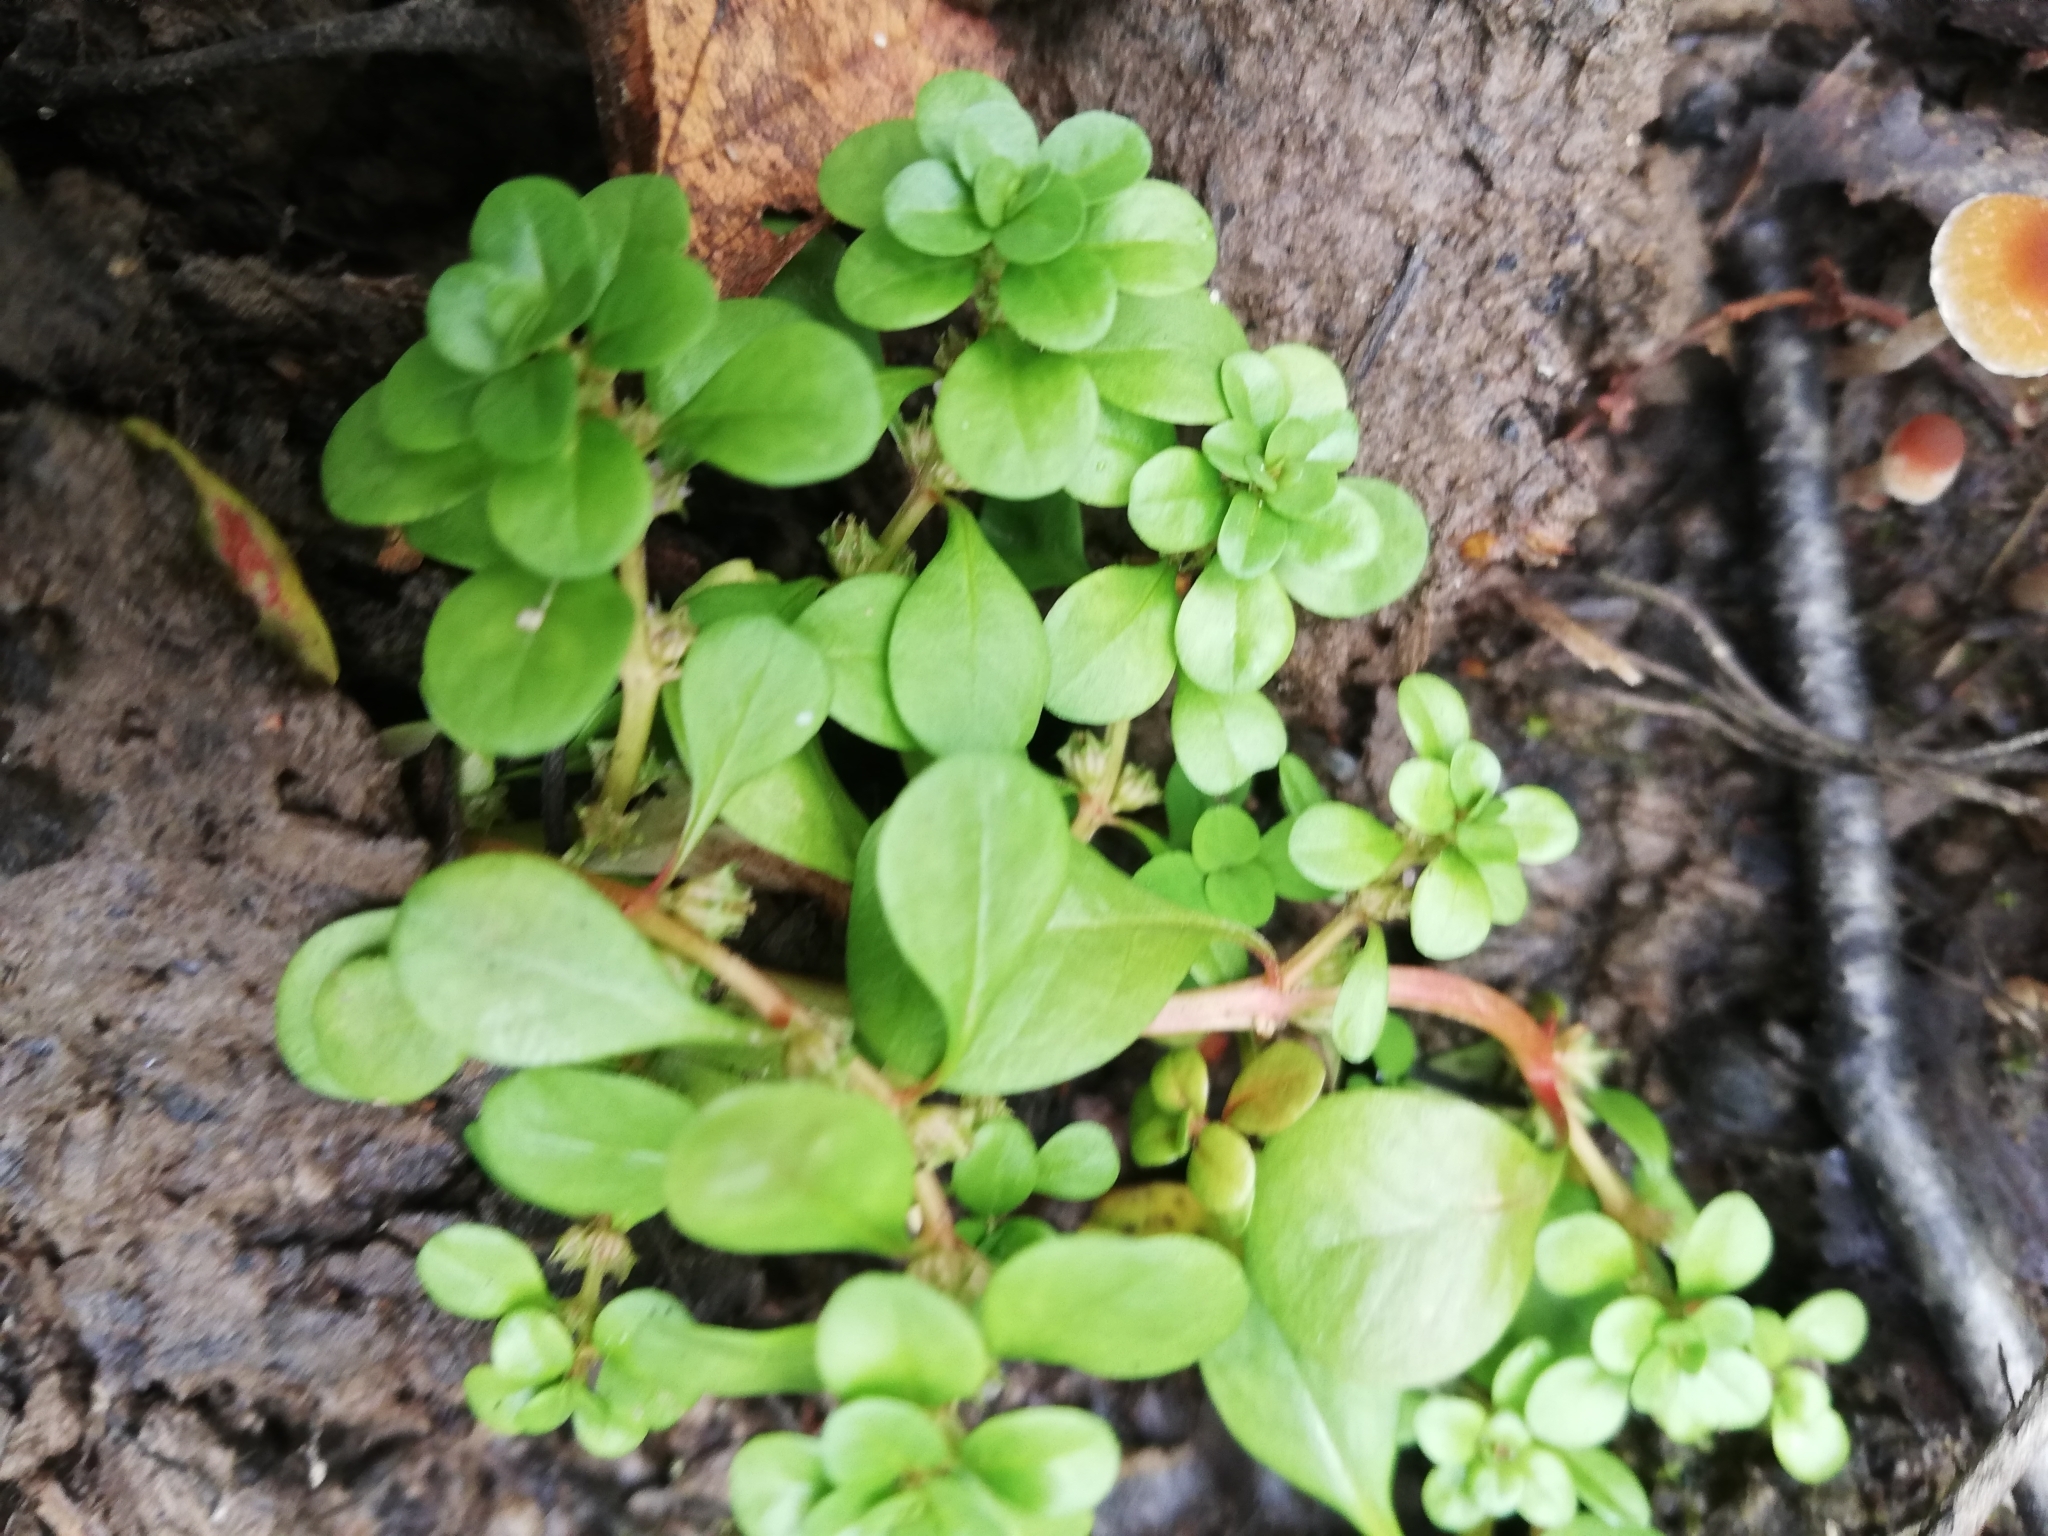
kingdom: Plantae
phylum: Tracheophyta
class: Magnoliopsida
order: Myrtales
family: Lythraceae
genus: Lythrum
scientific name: Lythrum portula
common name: Water purslane
